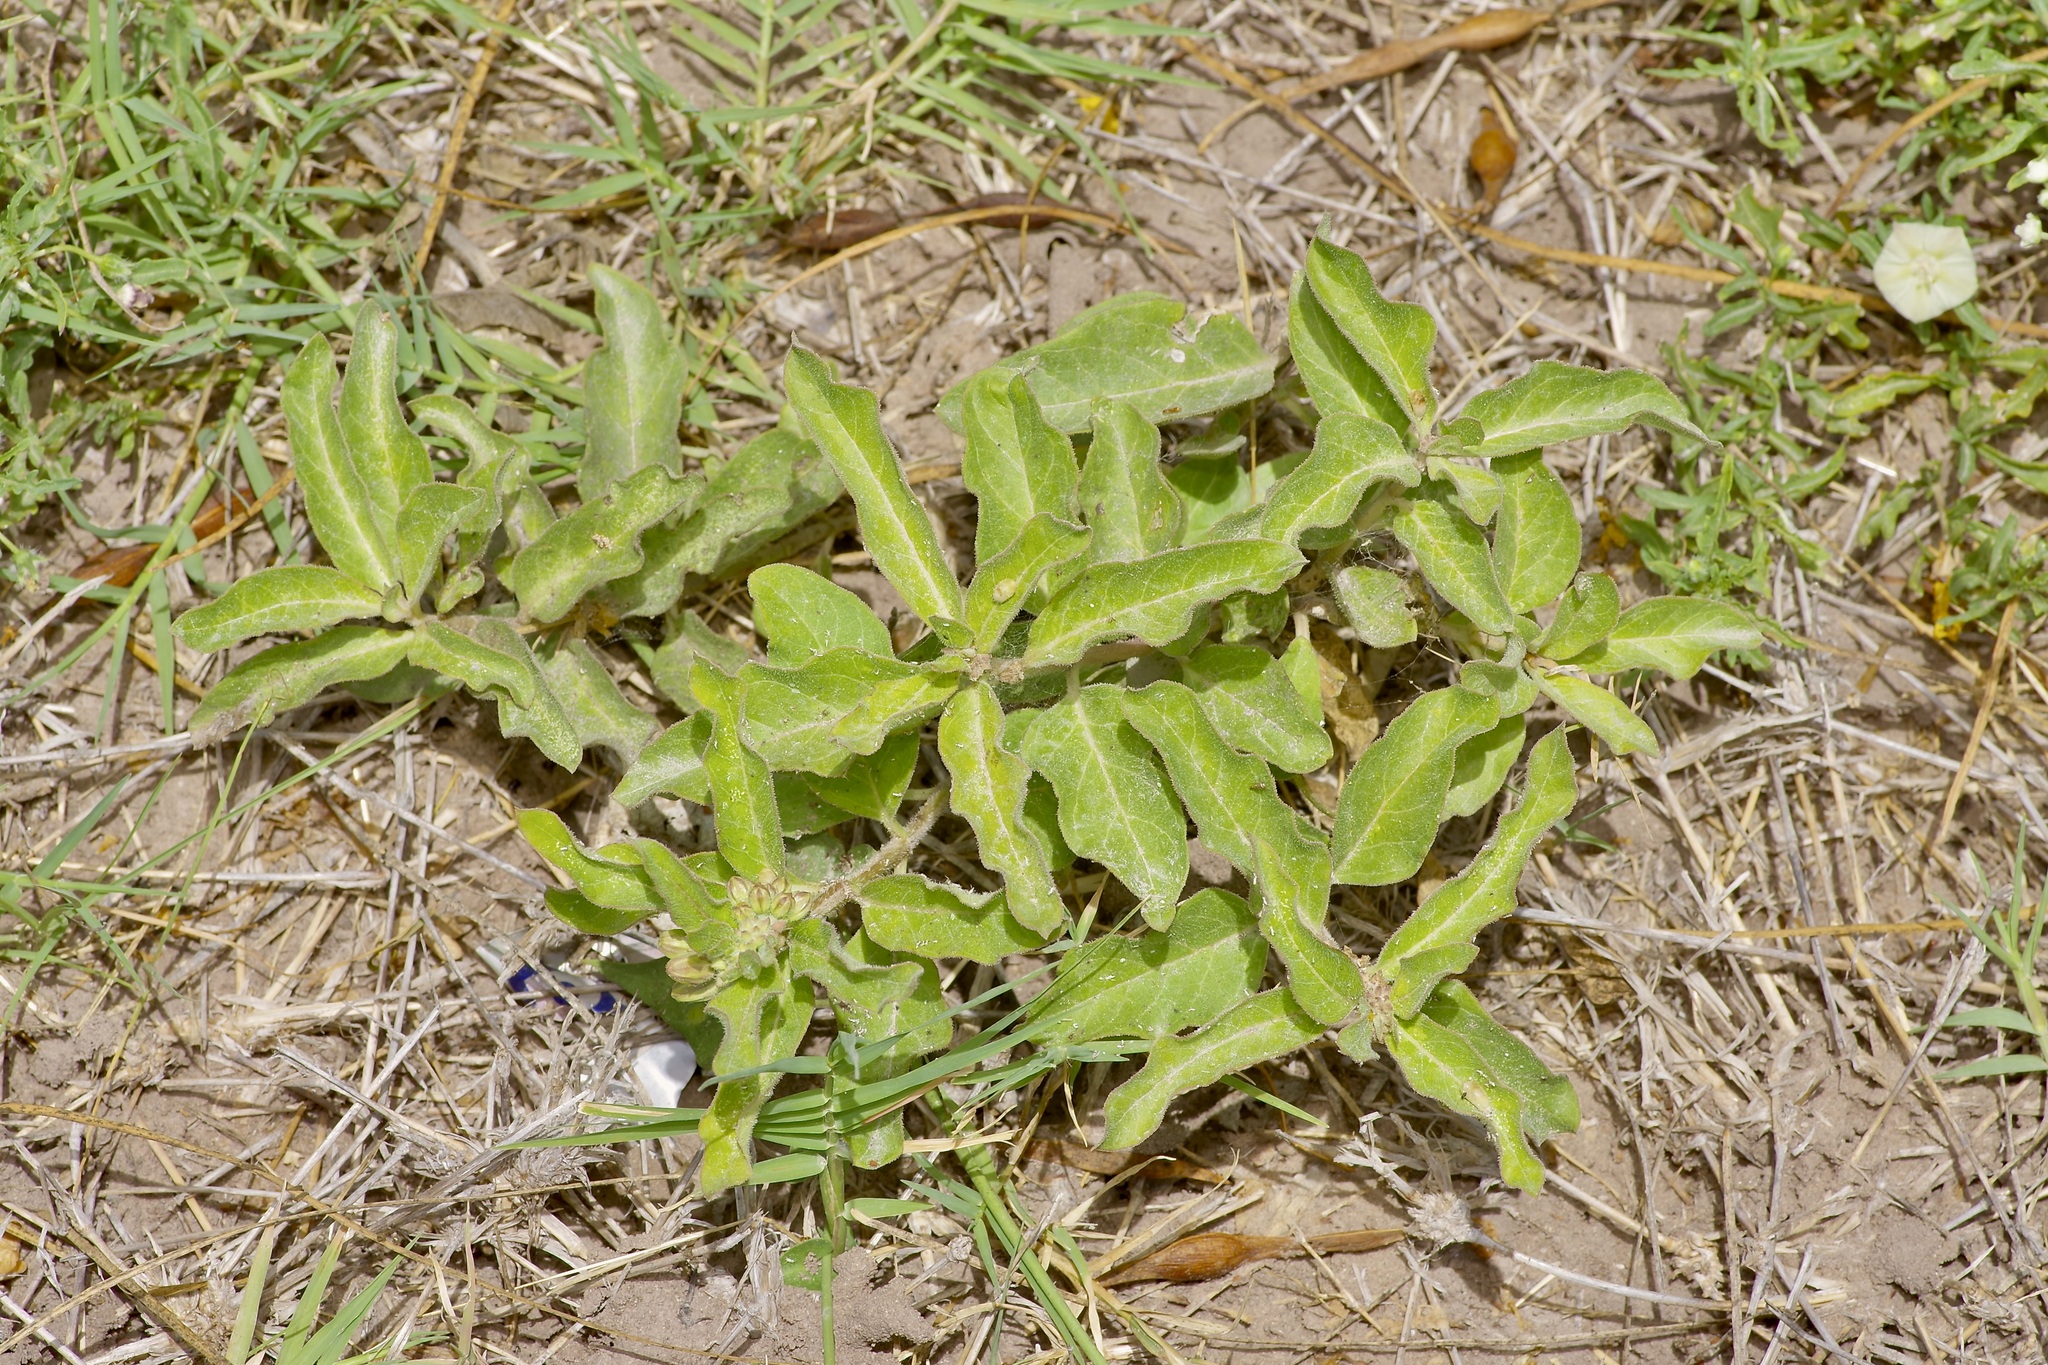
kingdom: Plantae
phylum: Tracheophyta
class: Magnoliopsida
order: Gentianales
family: Apocynaceae
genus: Asclepias
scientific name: Asclepias oenotheroides
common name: Zizotes milkweed
